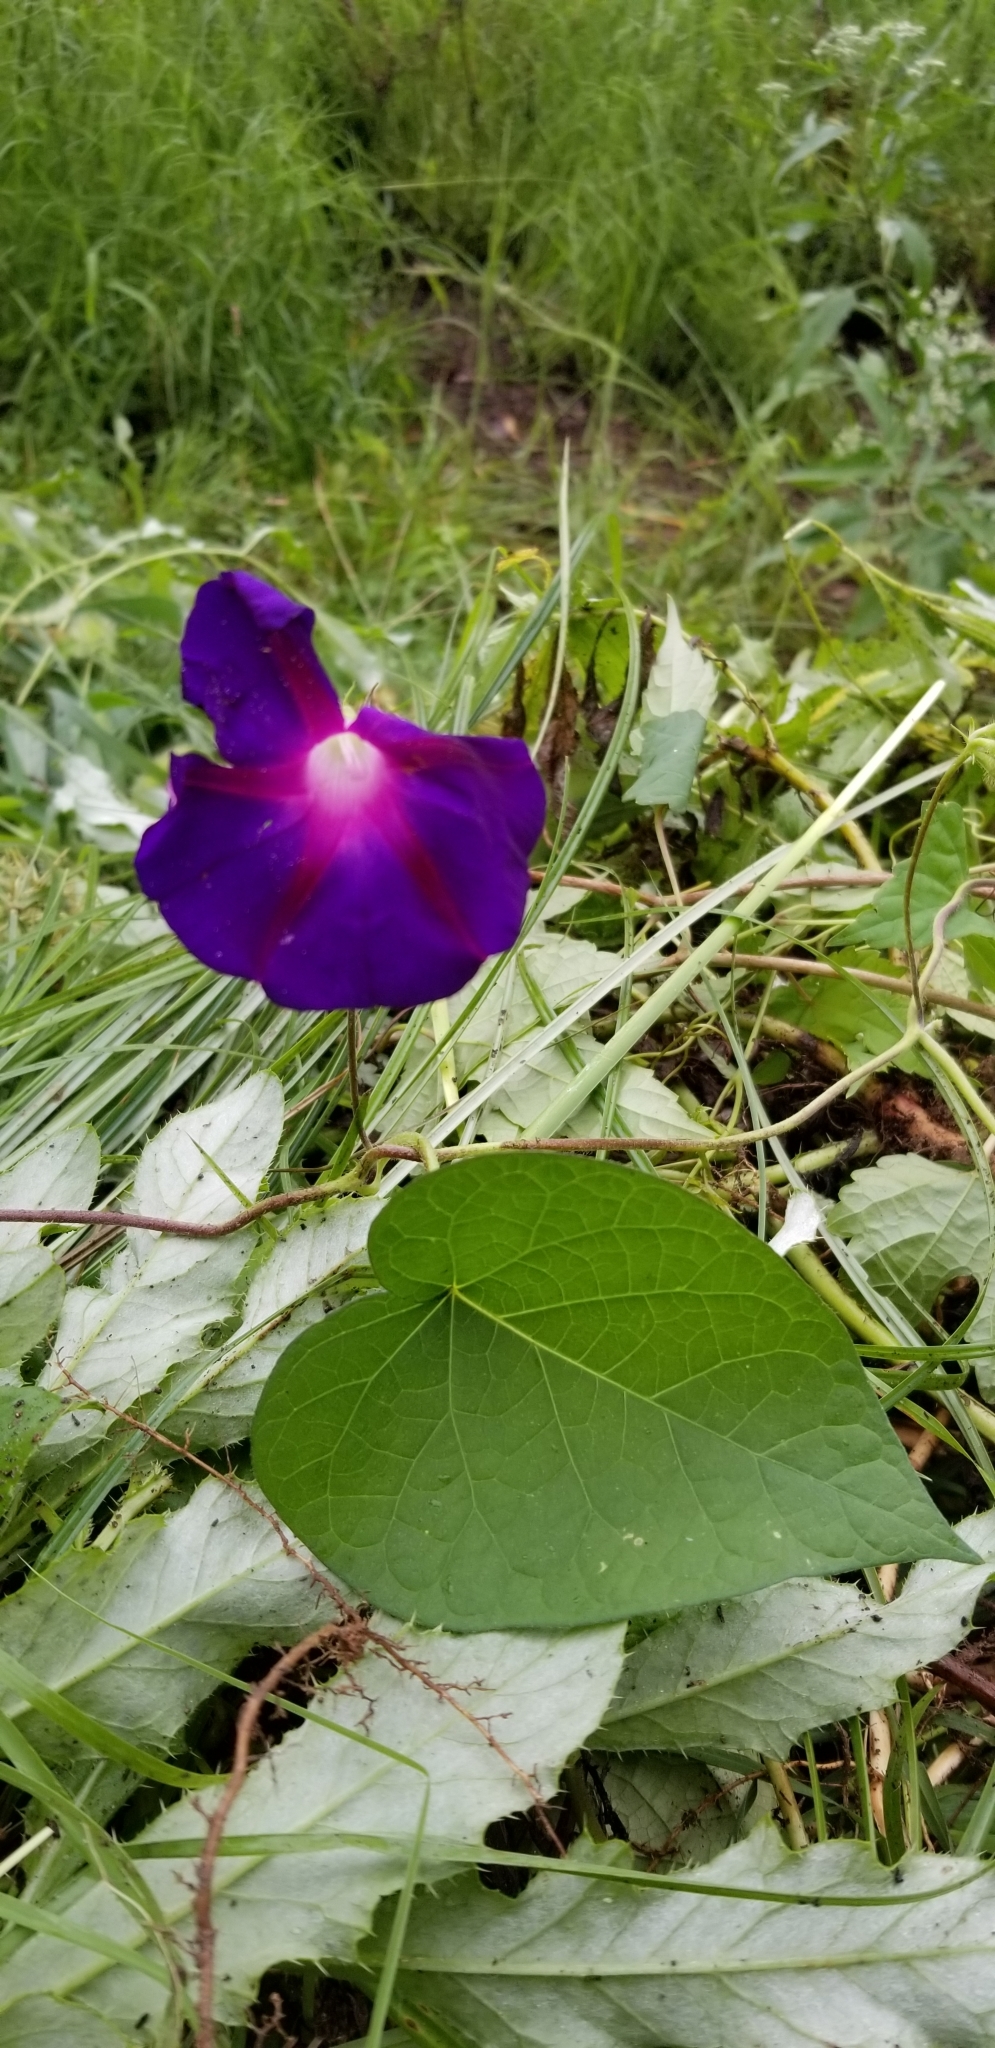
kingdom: Plantae
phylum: Tracheophyta
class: Magnoliopsida
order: Solanales
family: Convolvulaceae
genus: Ipomoea
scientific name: Ipomoea purpurea
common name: Common morning-glory
